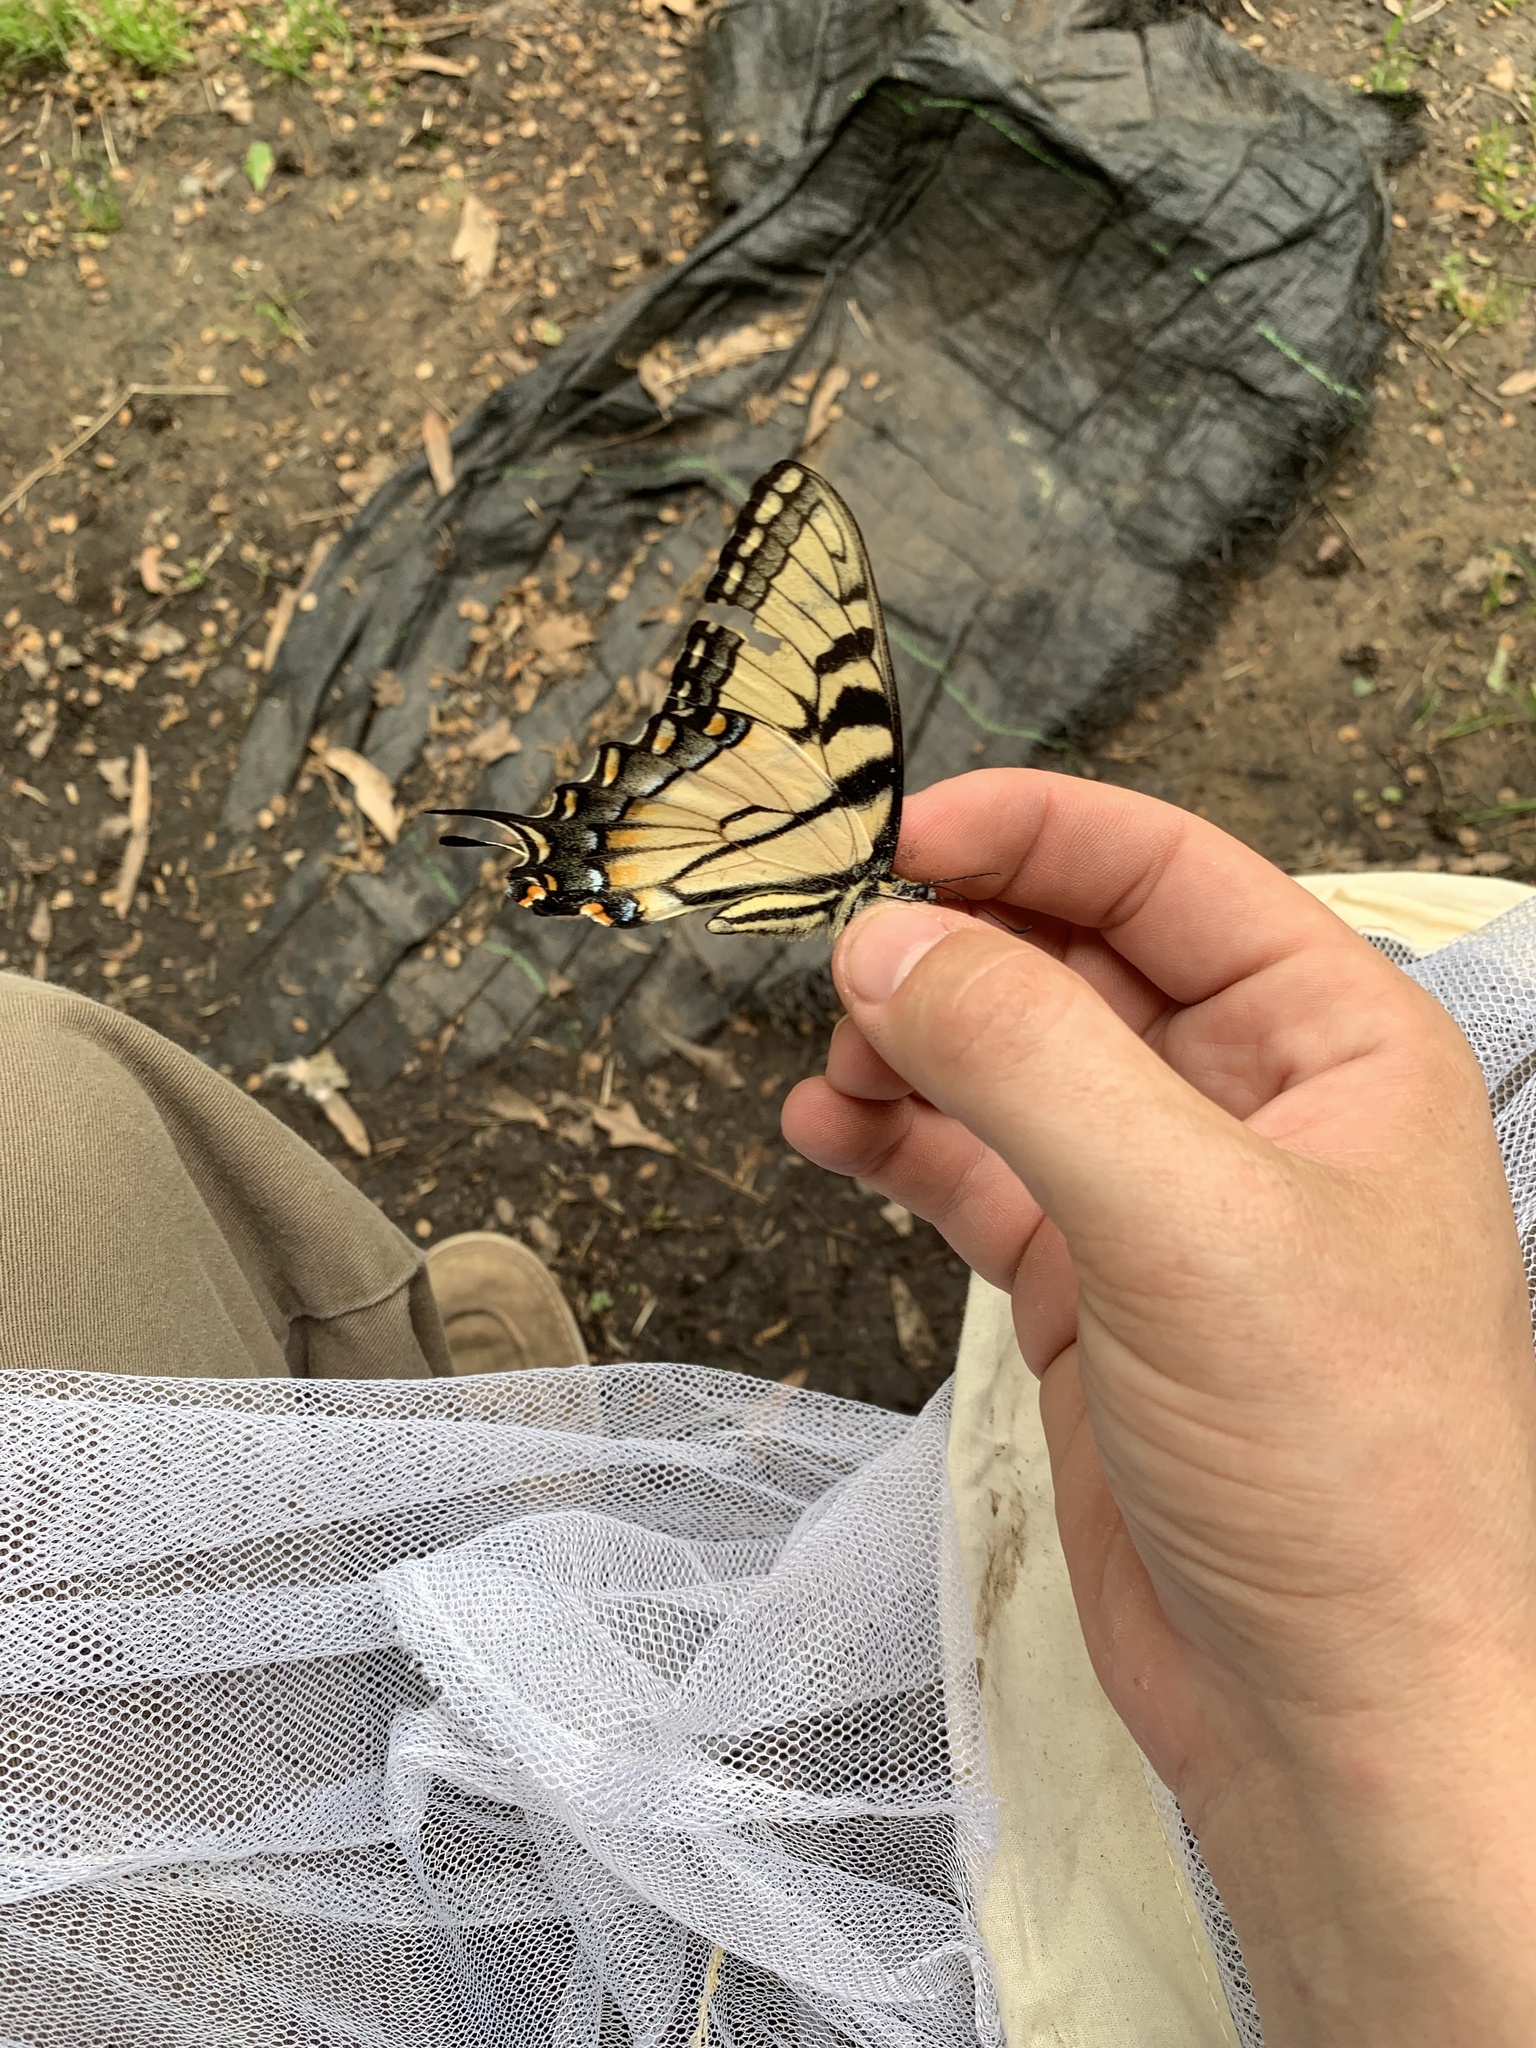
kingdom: Animalia
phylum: Arthropoda
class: Insecta
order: Lepidoptera
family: Papilionidae
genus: Papilio
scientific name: Papilio glaucus
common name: Tiger swallowtail
